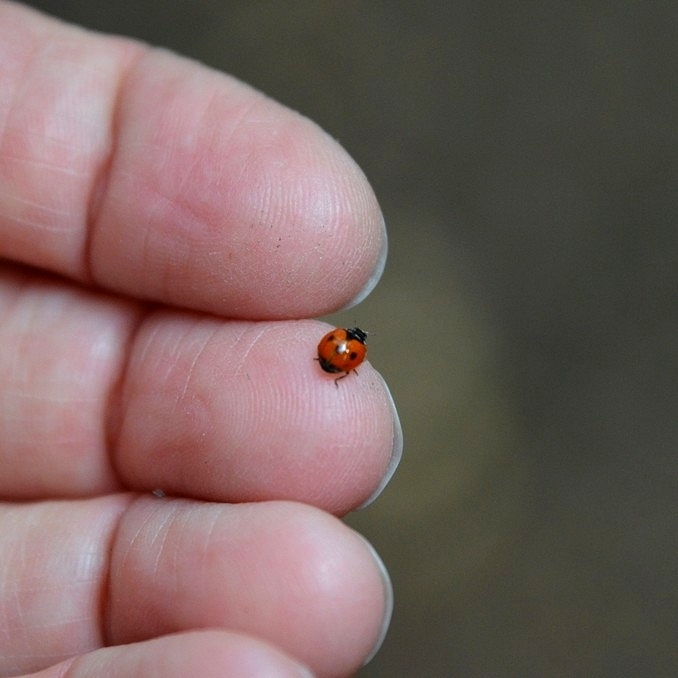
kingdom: Animalia
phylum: Arthropoda
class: Insecta
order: Coleoptera
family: Coccinellidae
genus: Adalia
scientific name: Adalia deficiens
